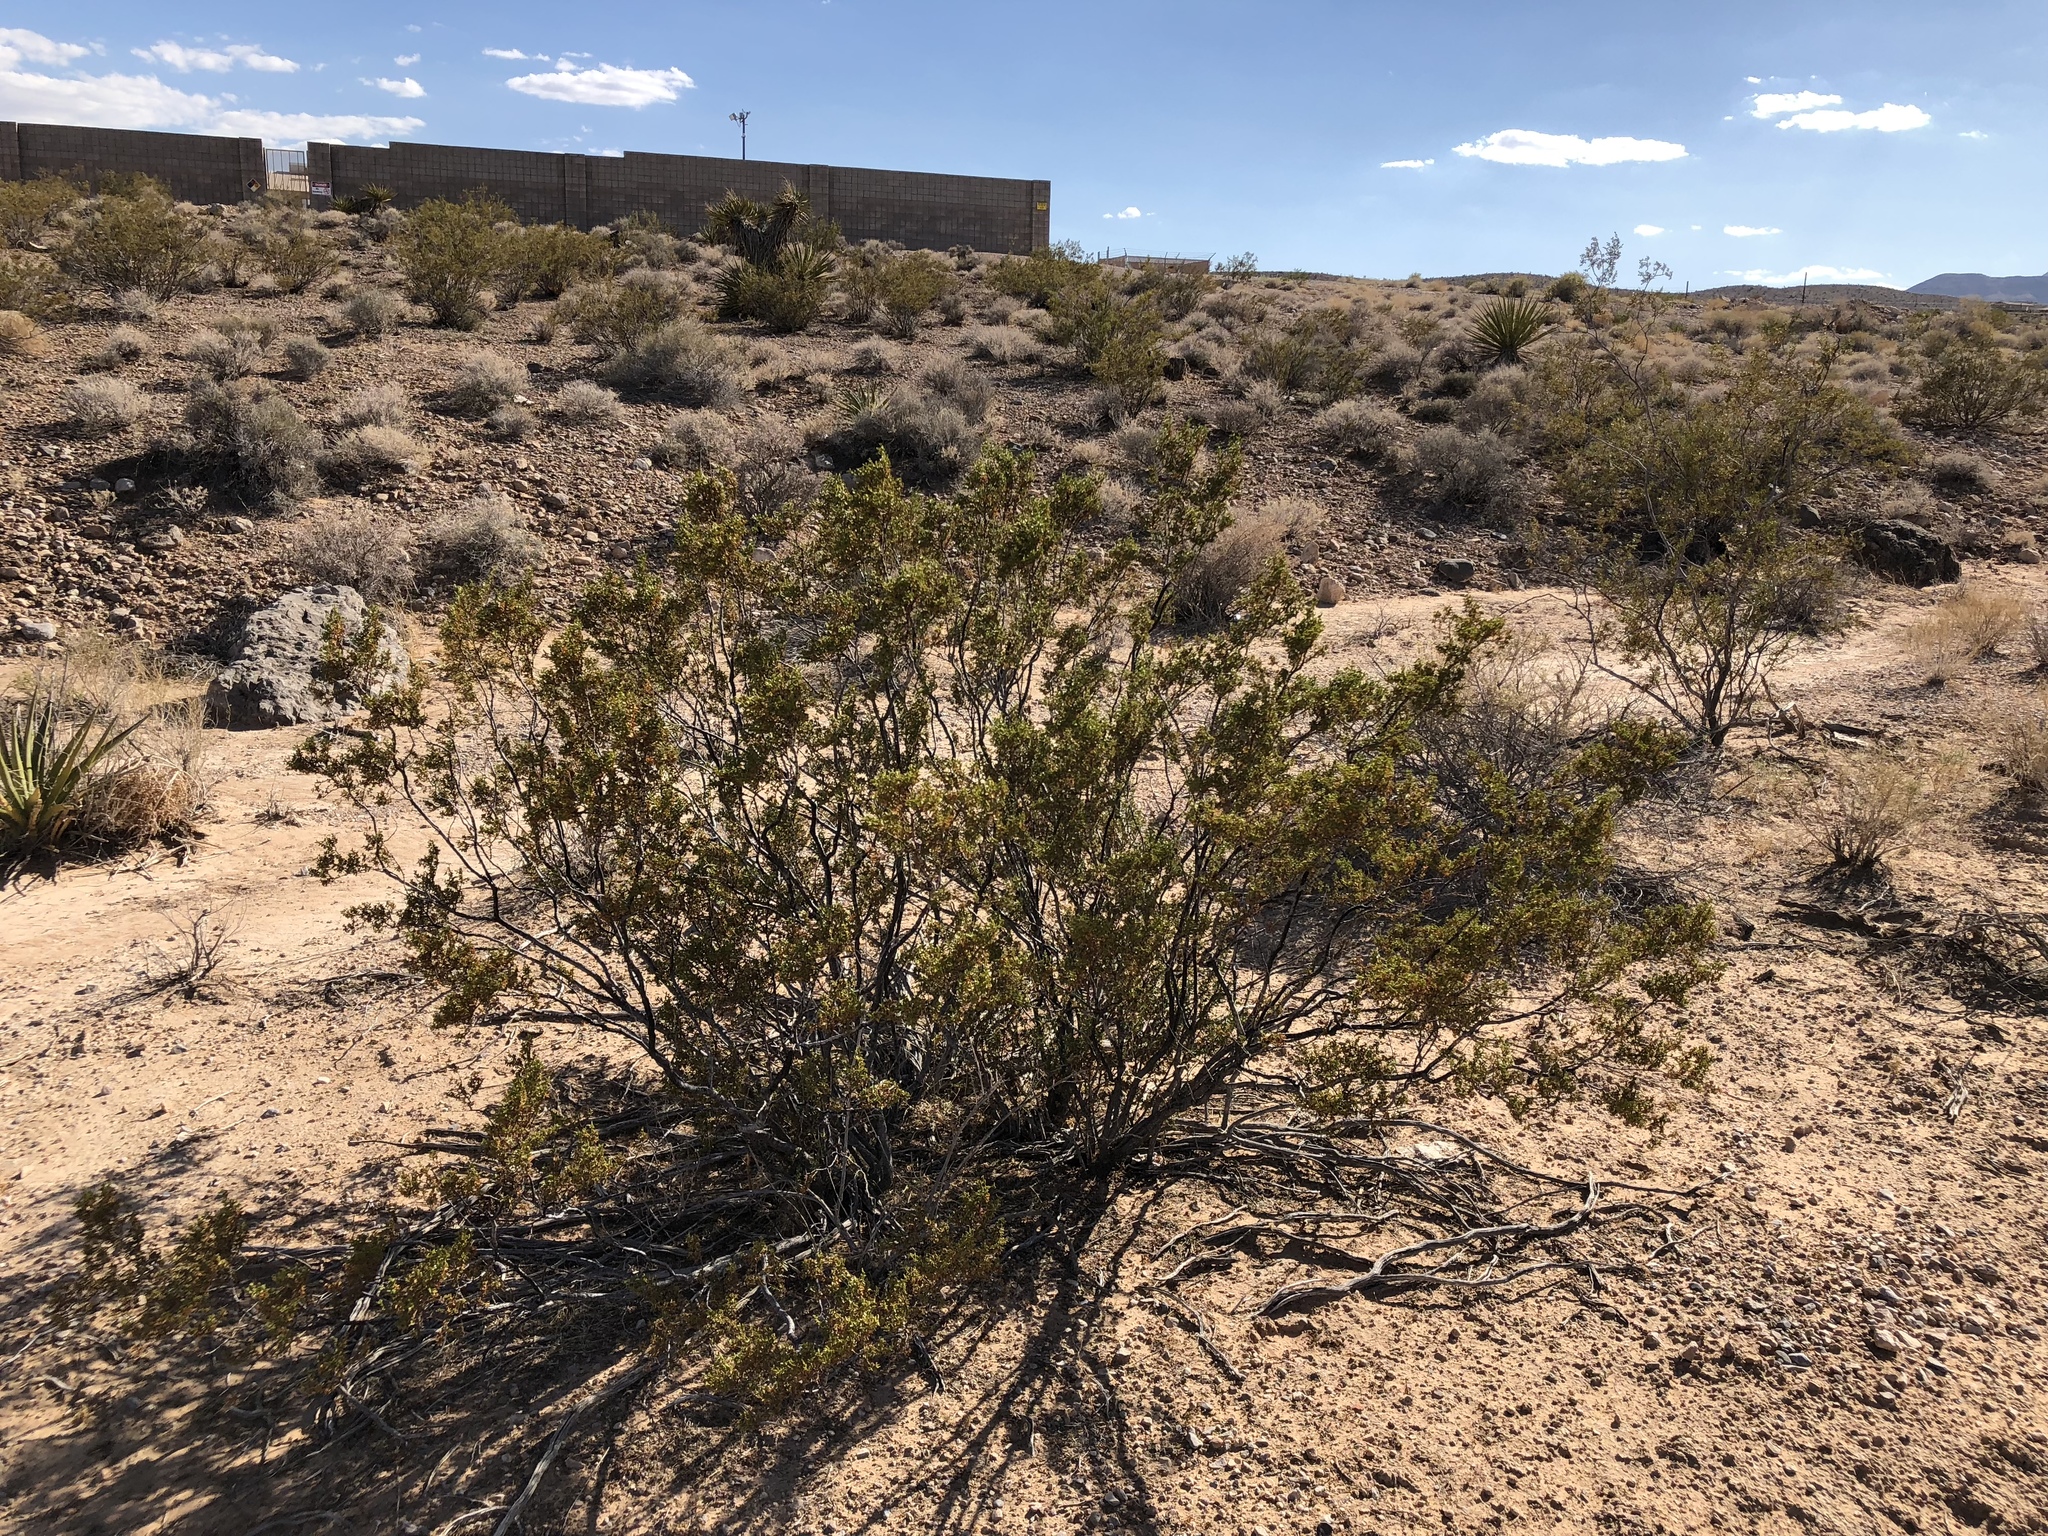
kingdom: Plantae
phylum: Tracheophyta
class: Magnoliopsida
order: Zygophyllales
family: Zygophyllaceae
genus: Larrea
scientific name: Larrea tridentata
